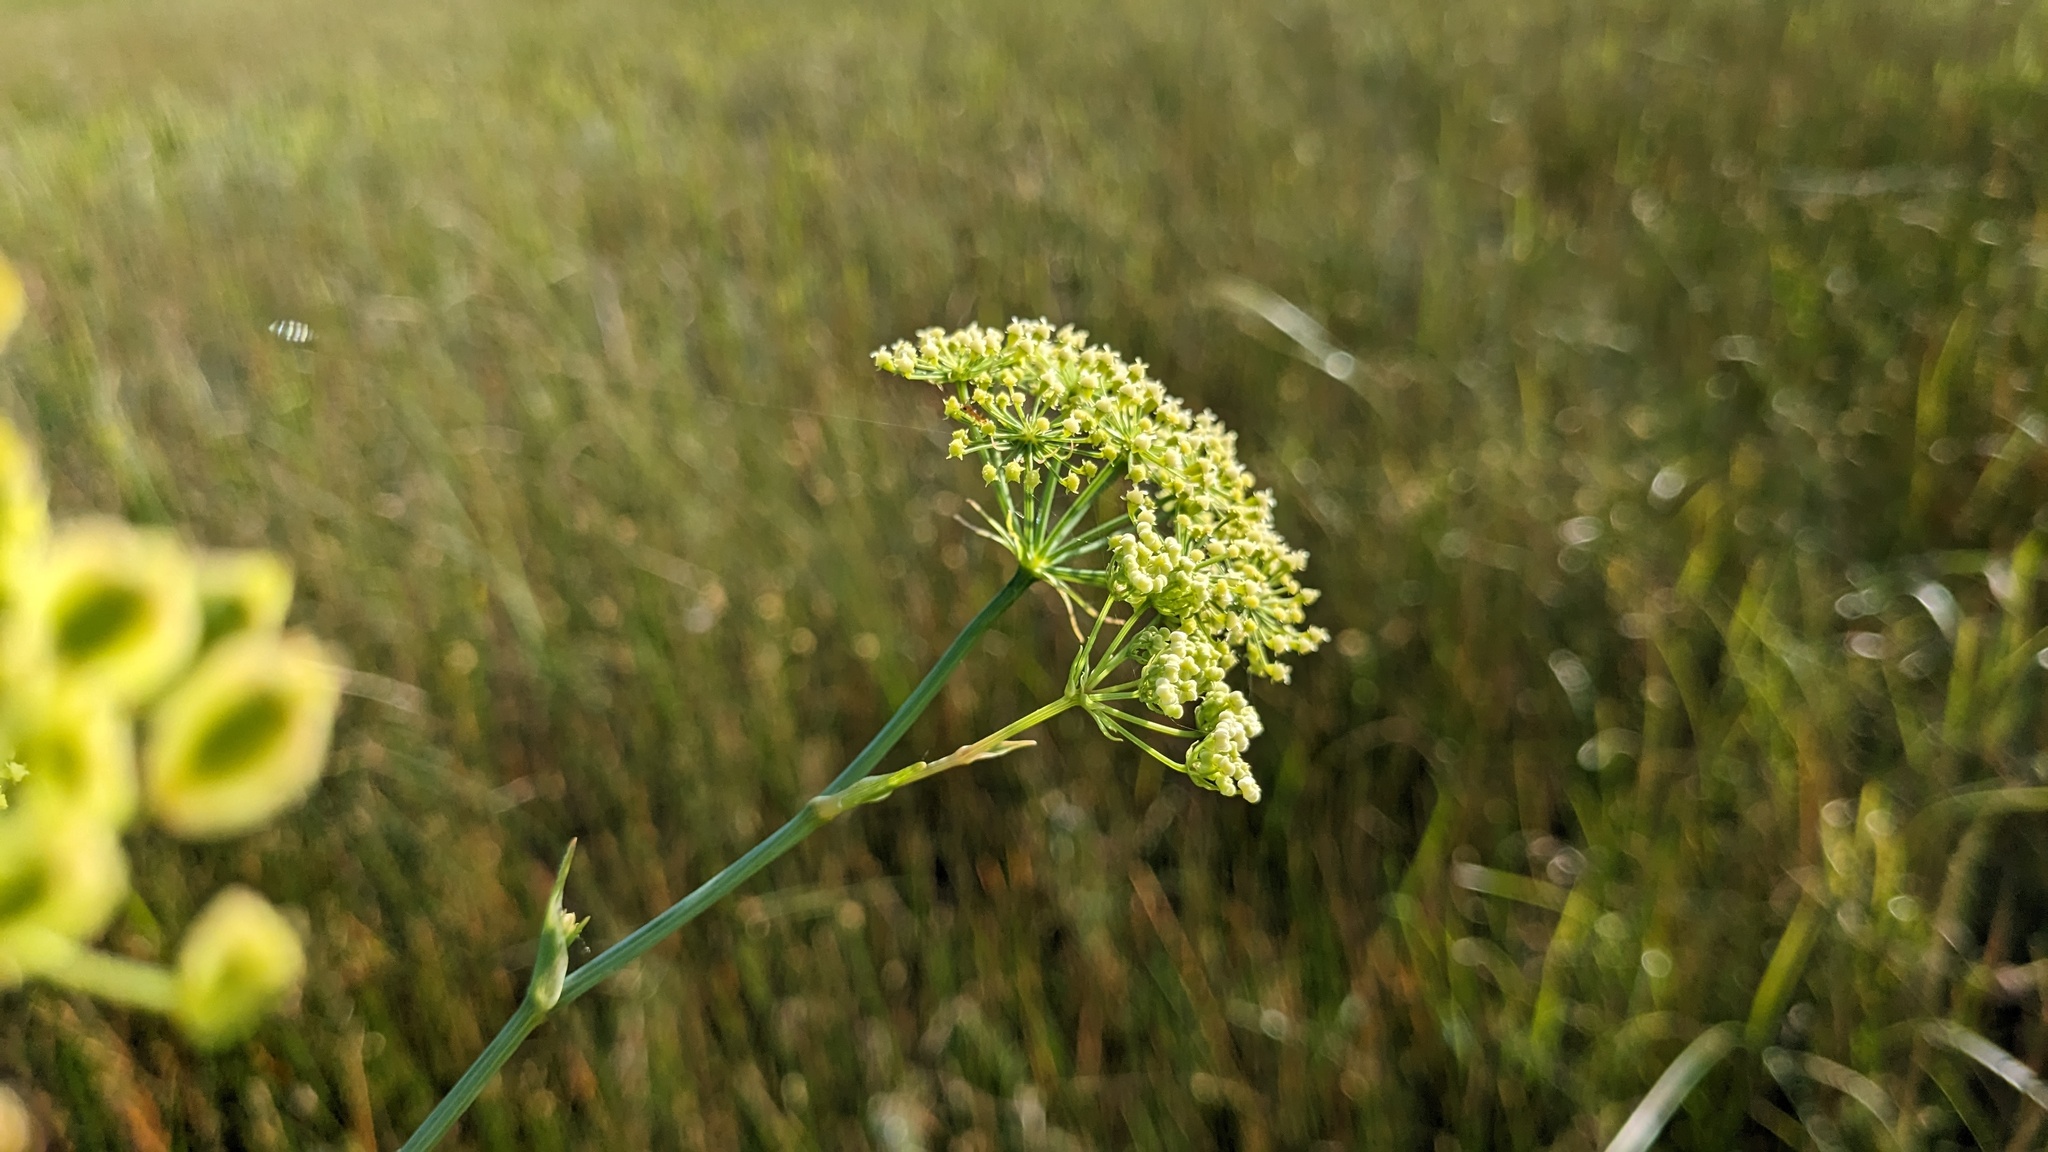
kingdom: Plantae
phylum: Tracheophyta
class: Magnoliopsida
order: Apiales
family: Apiaceae
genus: Tiedemannia
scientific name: Tiedemannia filiformis
